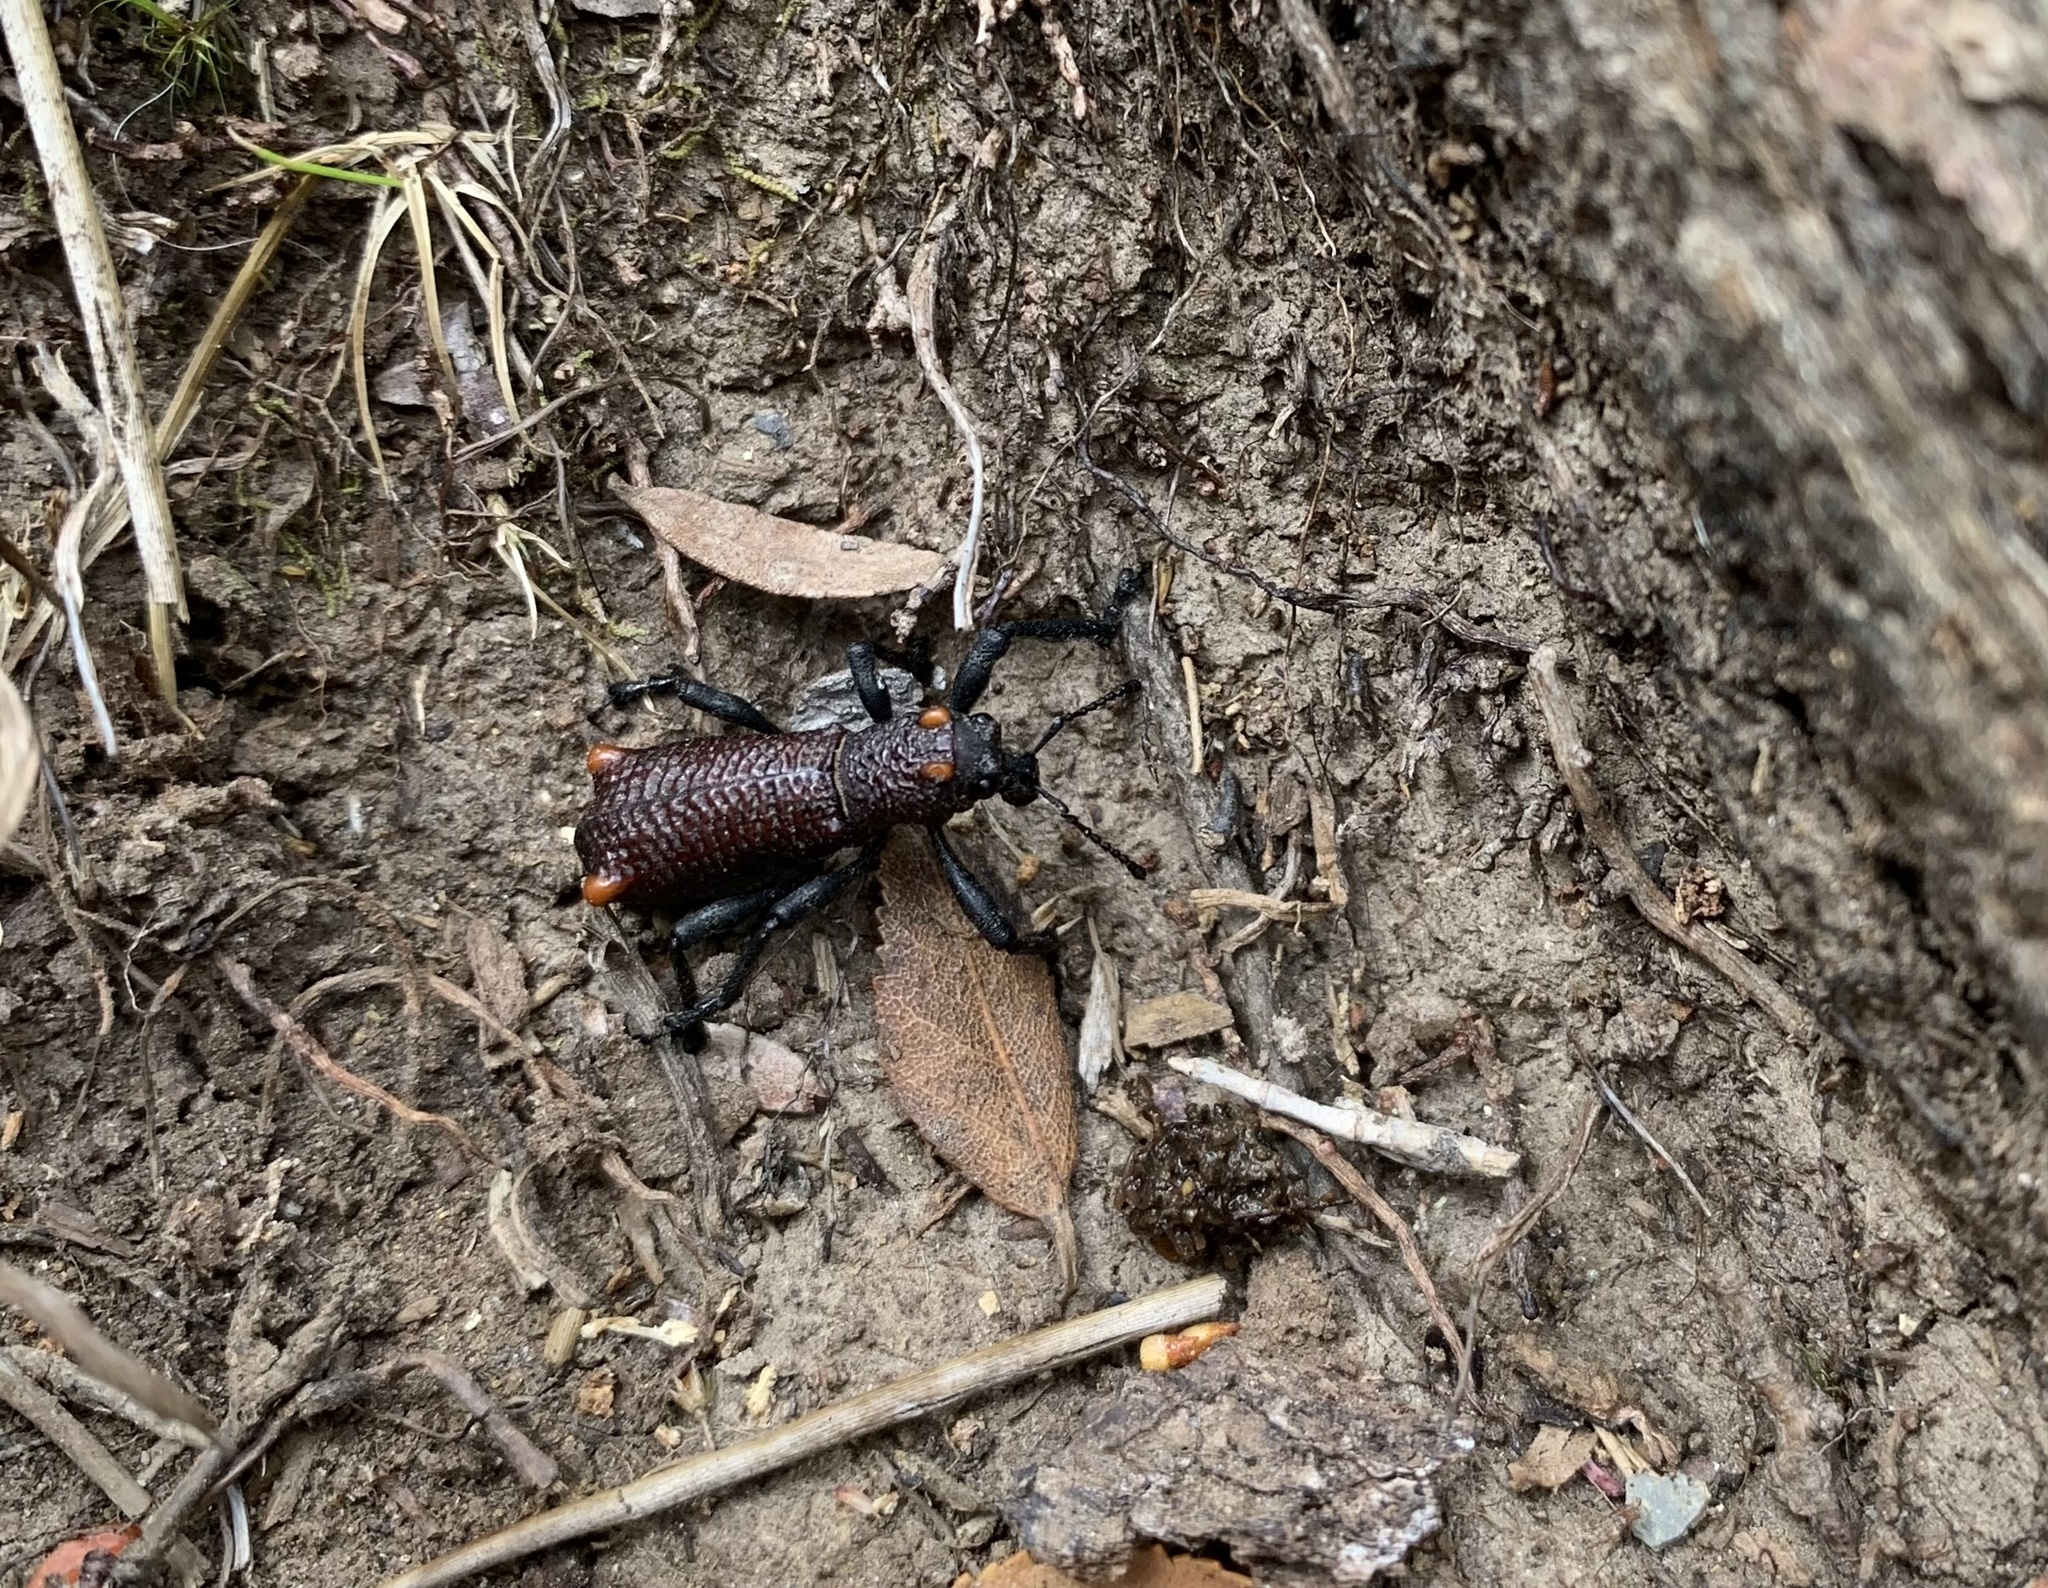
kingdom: Animalia
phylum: Arthropoda
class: Insecta
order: Coleoptera
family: Curculionidae
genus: Aegorhinus
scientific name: Aegorhinus bulbifer
